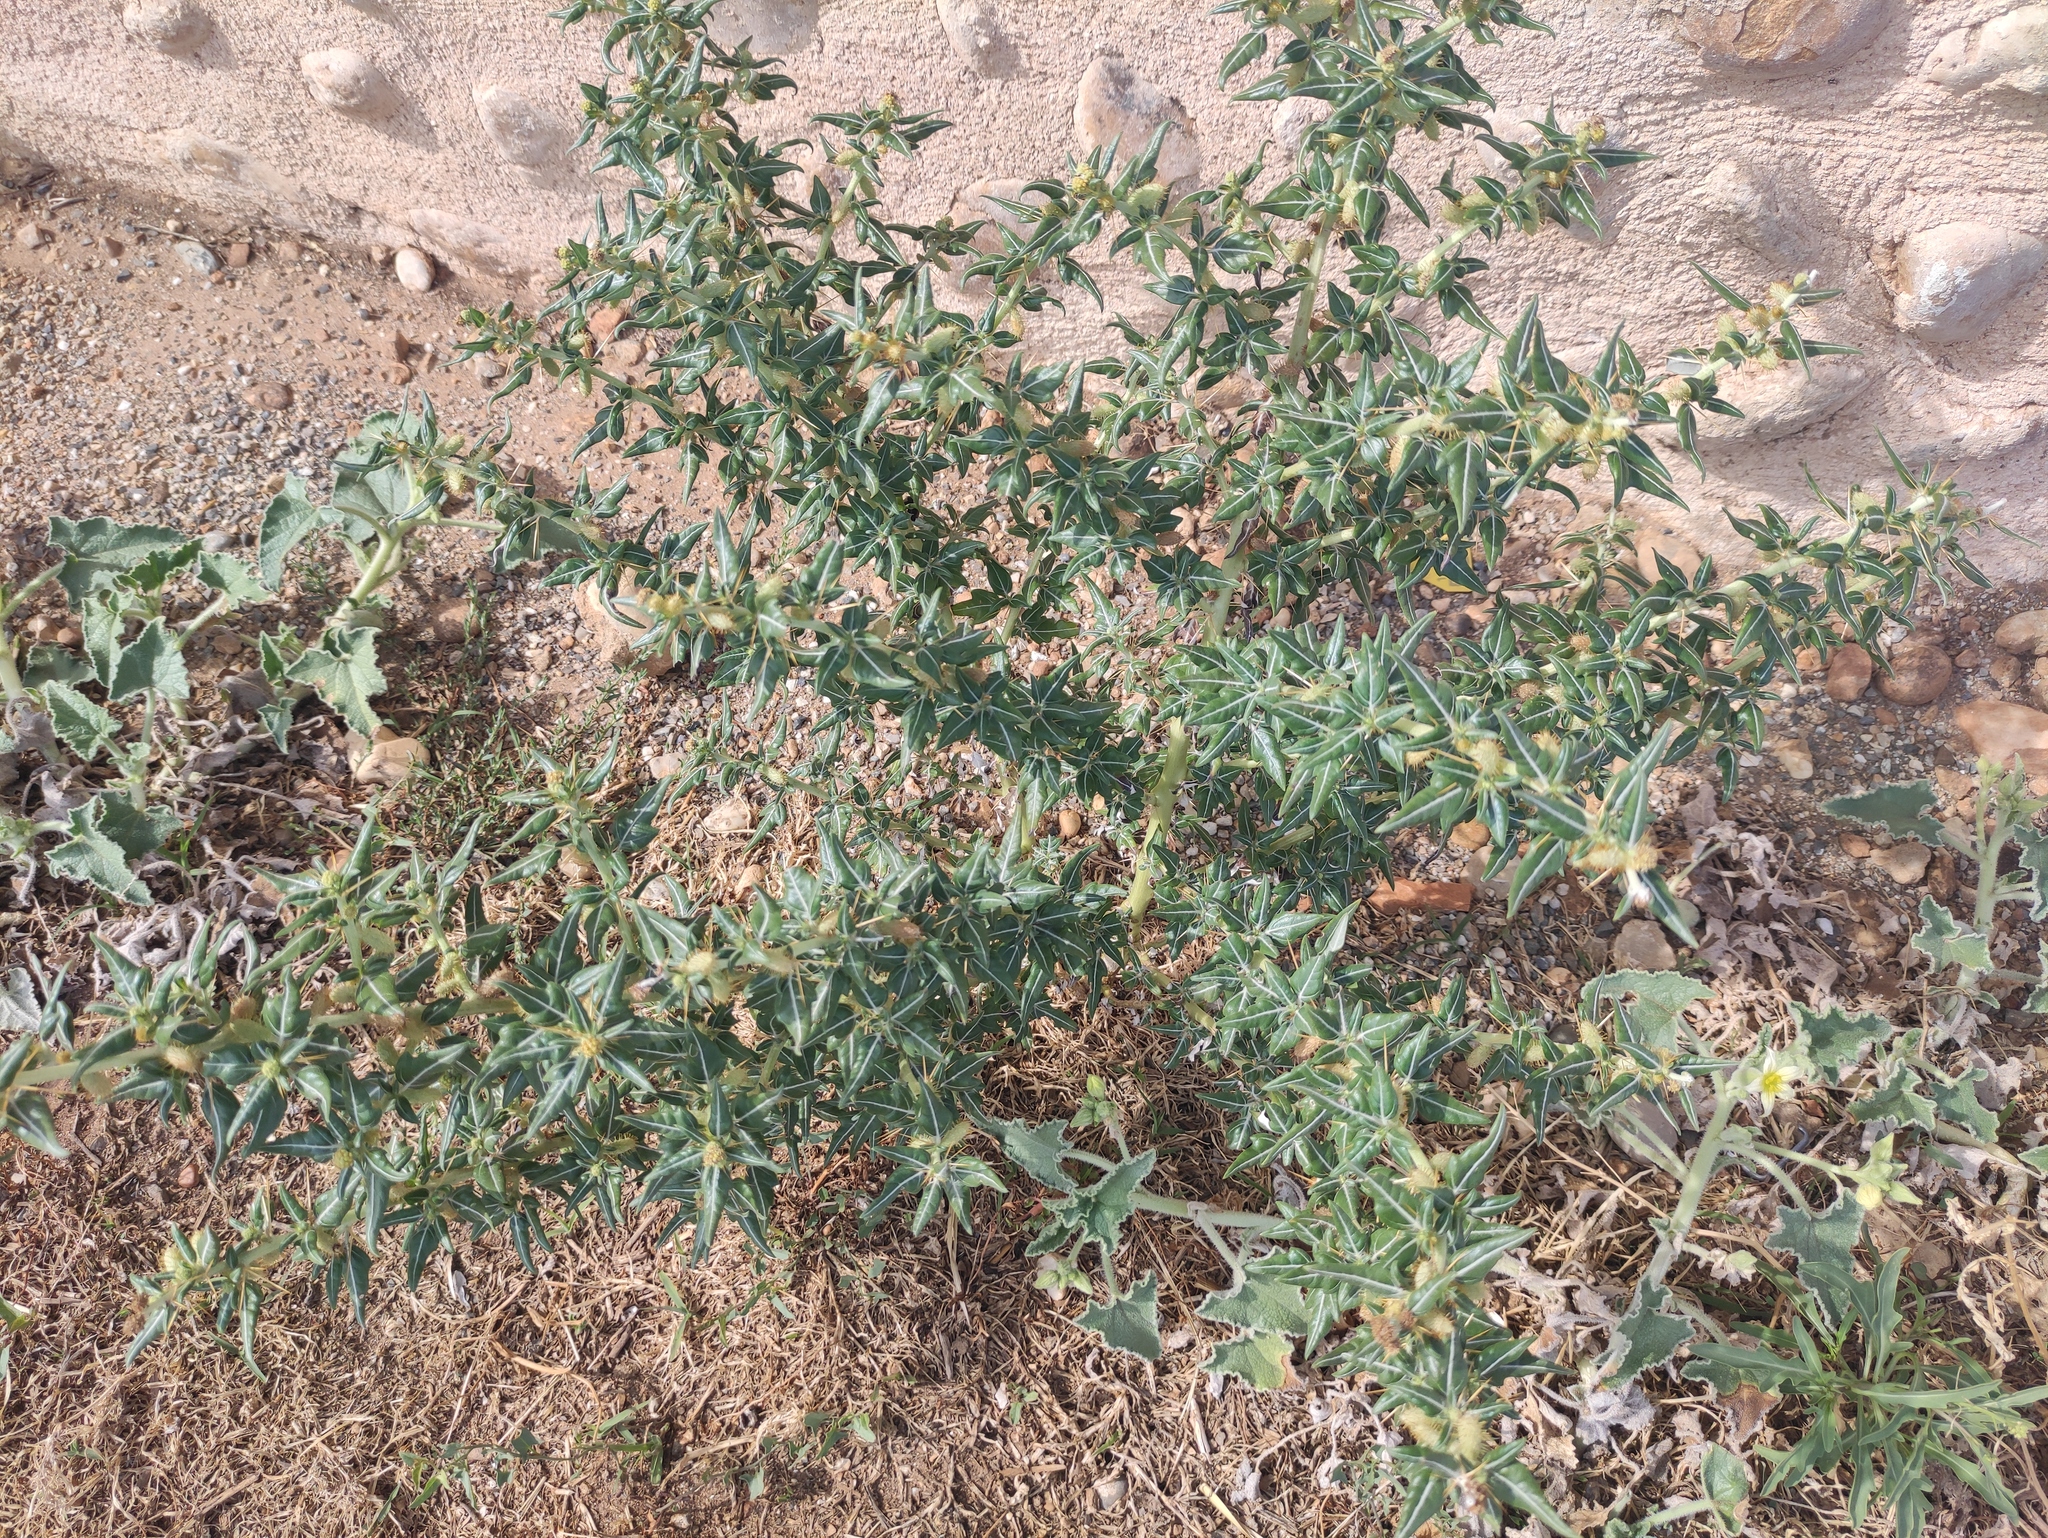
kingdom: Plantae
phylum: Tracheophyta
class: Magnoliopsida
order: Asterales
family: Asteraceae
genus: Xanthium
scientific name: Xanthium spinosum
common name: Spiny cocklebur
